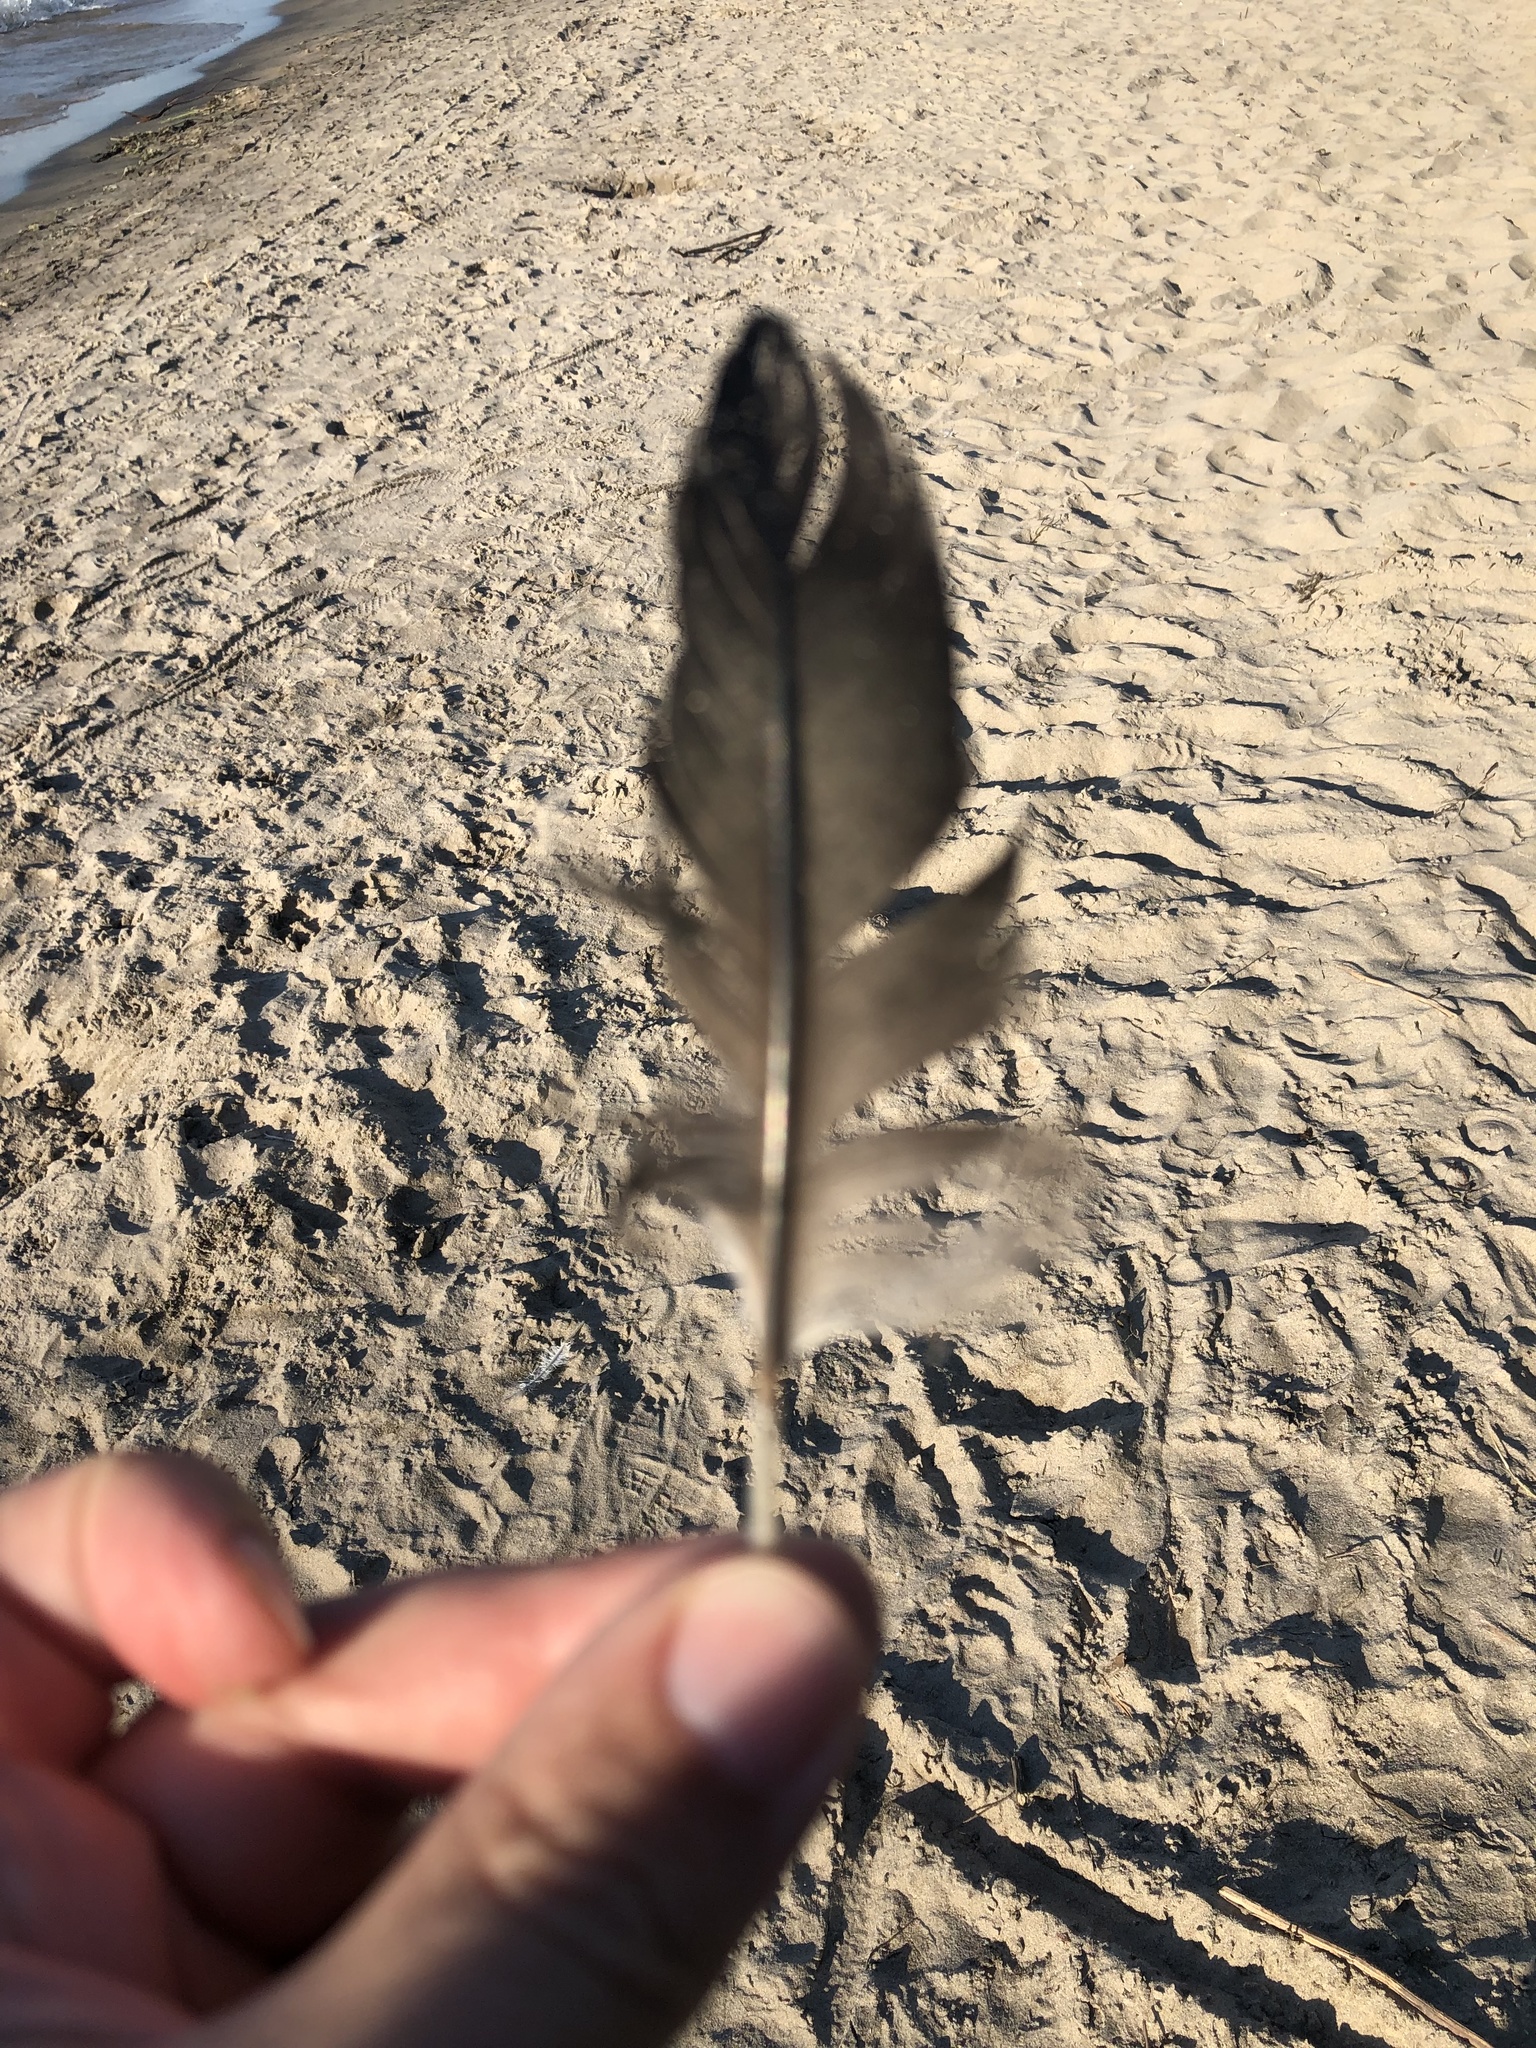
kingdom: Animalia
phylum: Chordata
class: Aves
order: Suliformes
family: Phalacrocoracidae
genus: Phalacrocorax
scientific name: Phalacrocorax auritus
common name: Double-crested cormorant
